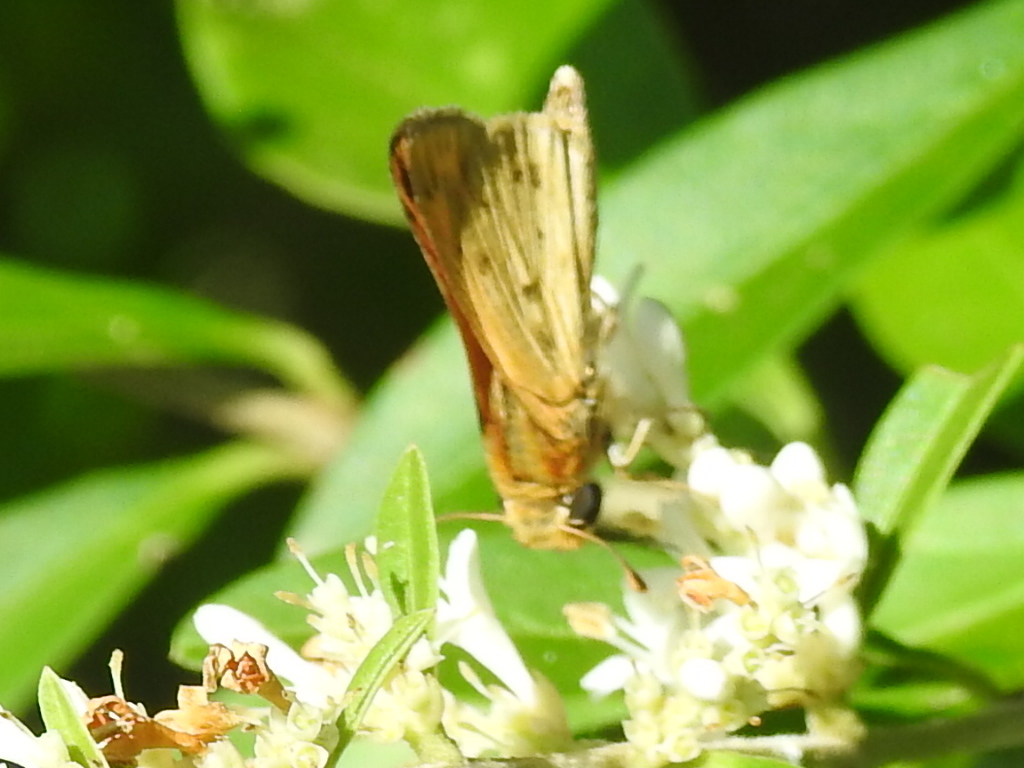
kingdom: Animalia
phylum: Arthropoda
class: Insecta
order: Lepidoptera
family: Hesperiidae
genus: Hylephila
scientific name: Hylephila phyleus
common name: Fiery skipper
